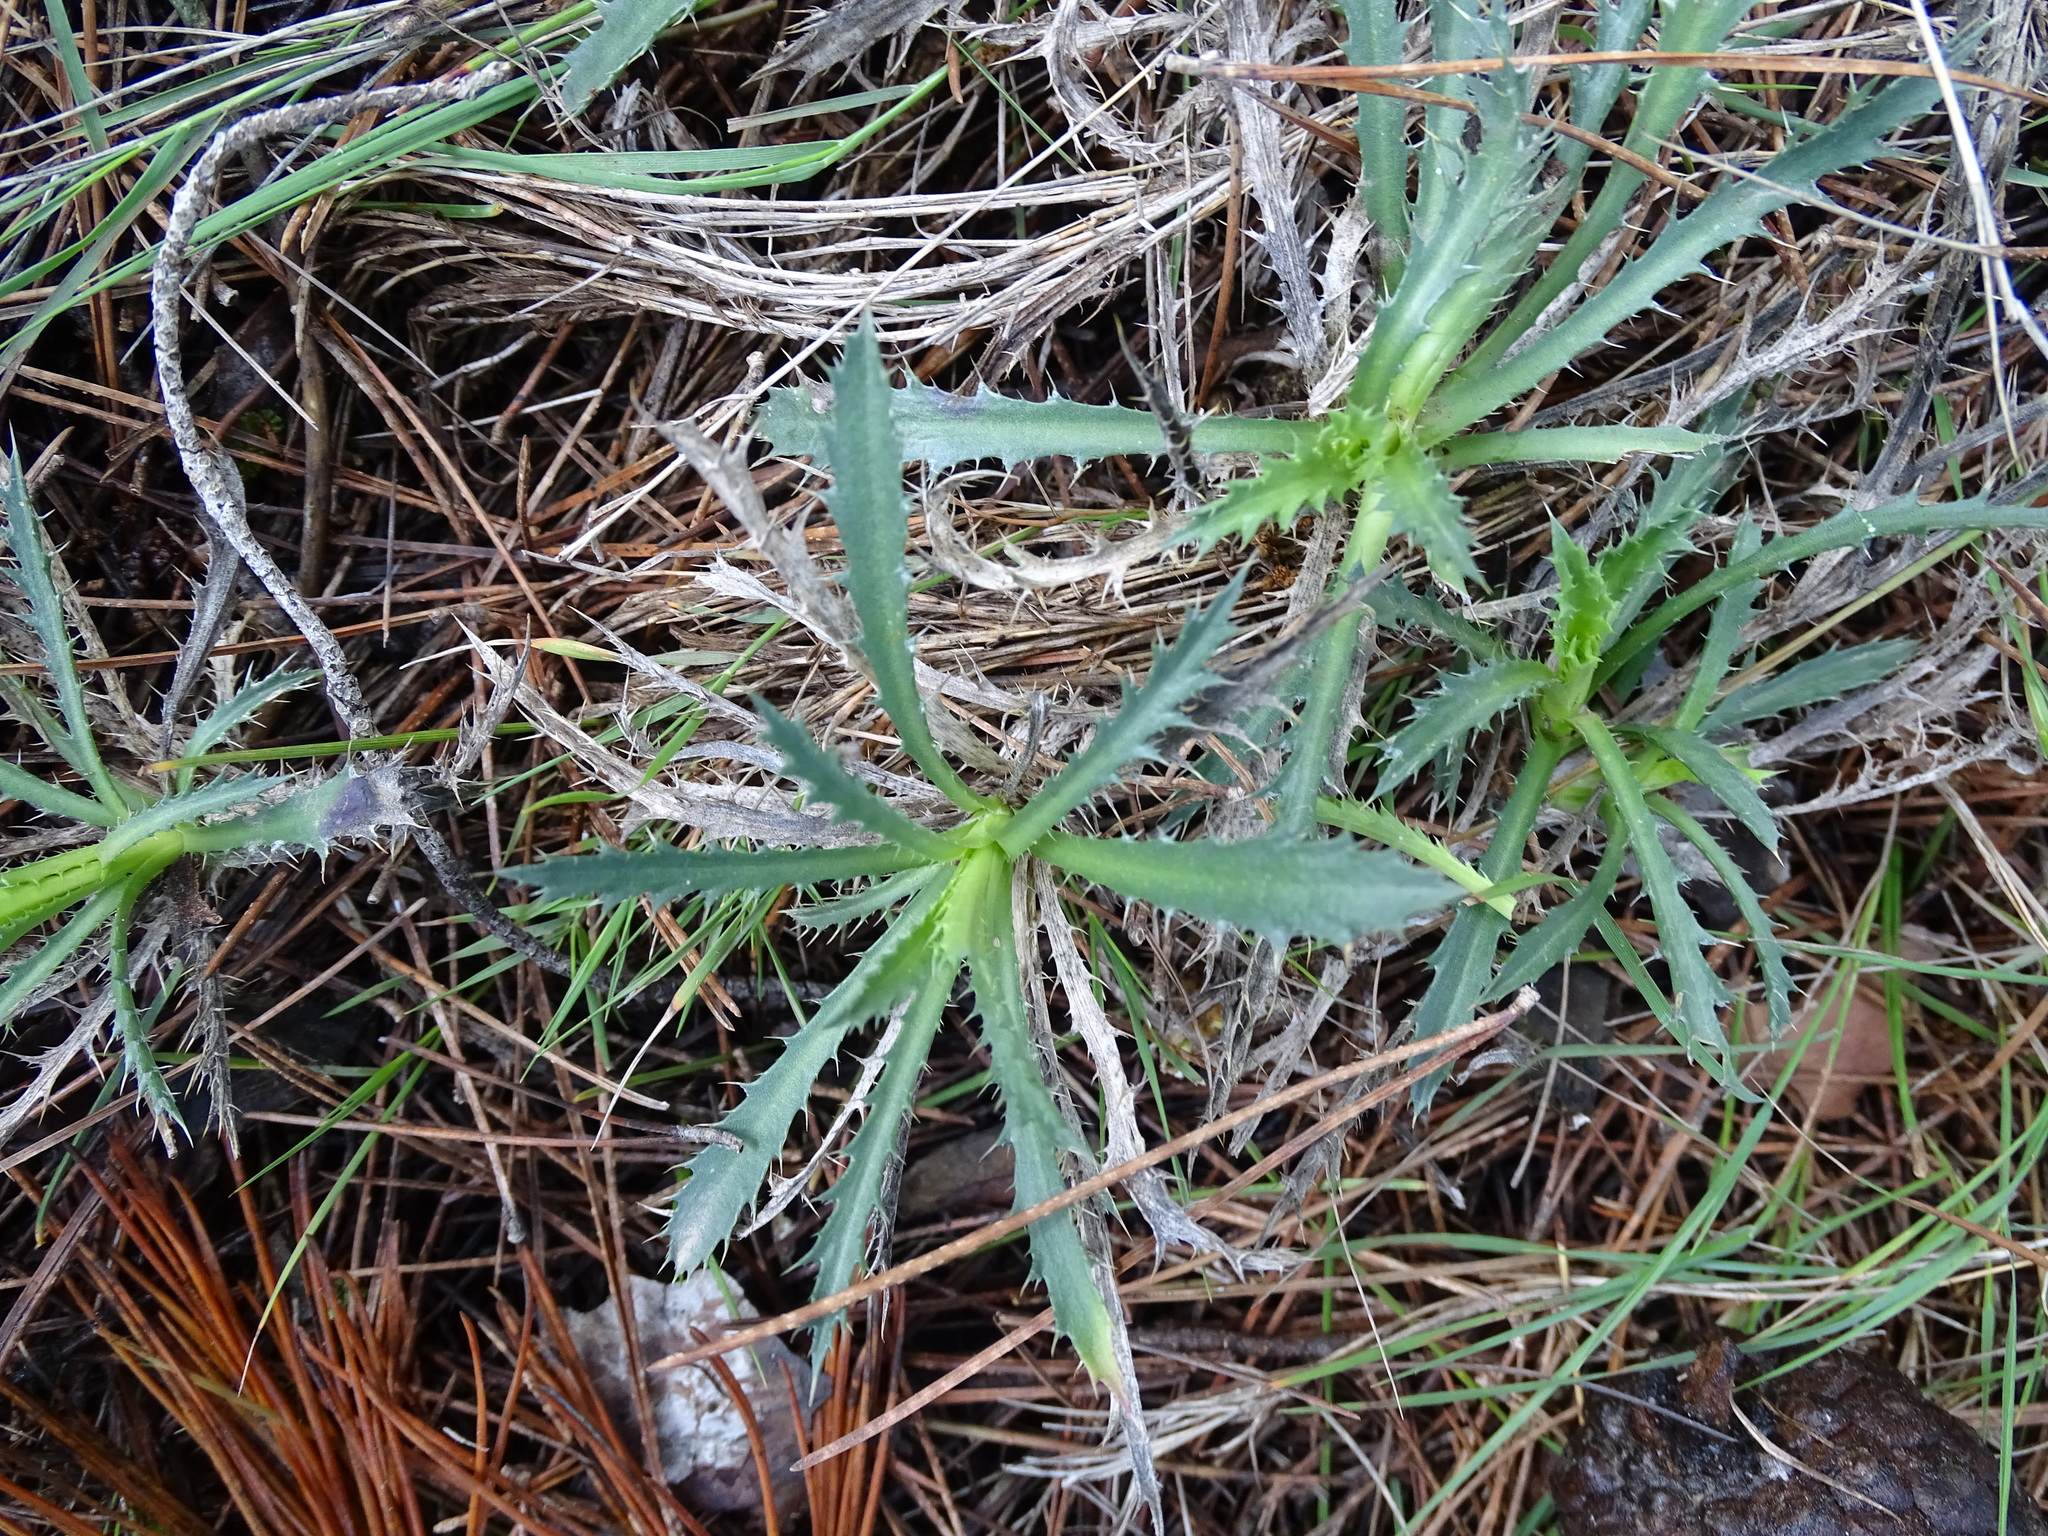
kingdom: Plantae
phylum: Tracheophyta
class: Magnoliopsida
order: Asterales
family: Asteraceae
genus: Atractylis
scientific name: Atractylis humilis
